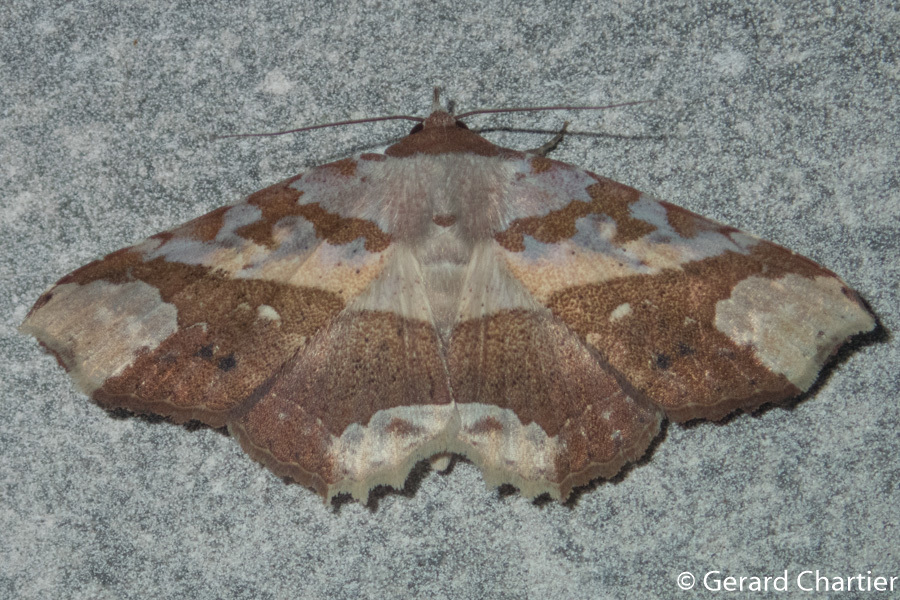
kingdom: Animalia
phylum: Arthropoda
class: Insecta
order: Lepidoptera
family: Erebidae
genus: Tropidtamba
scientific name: Tropidtamba lepraota
